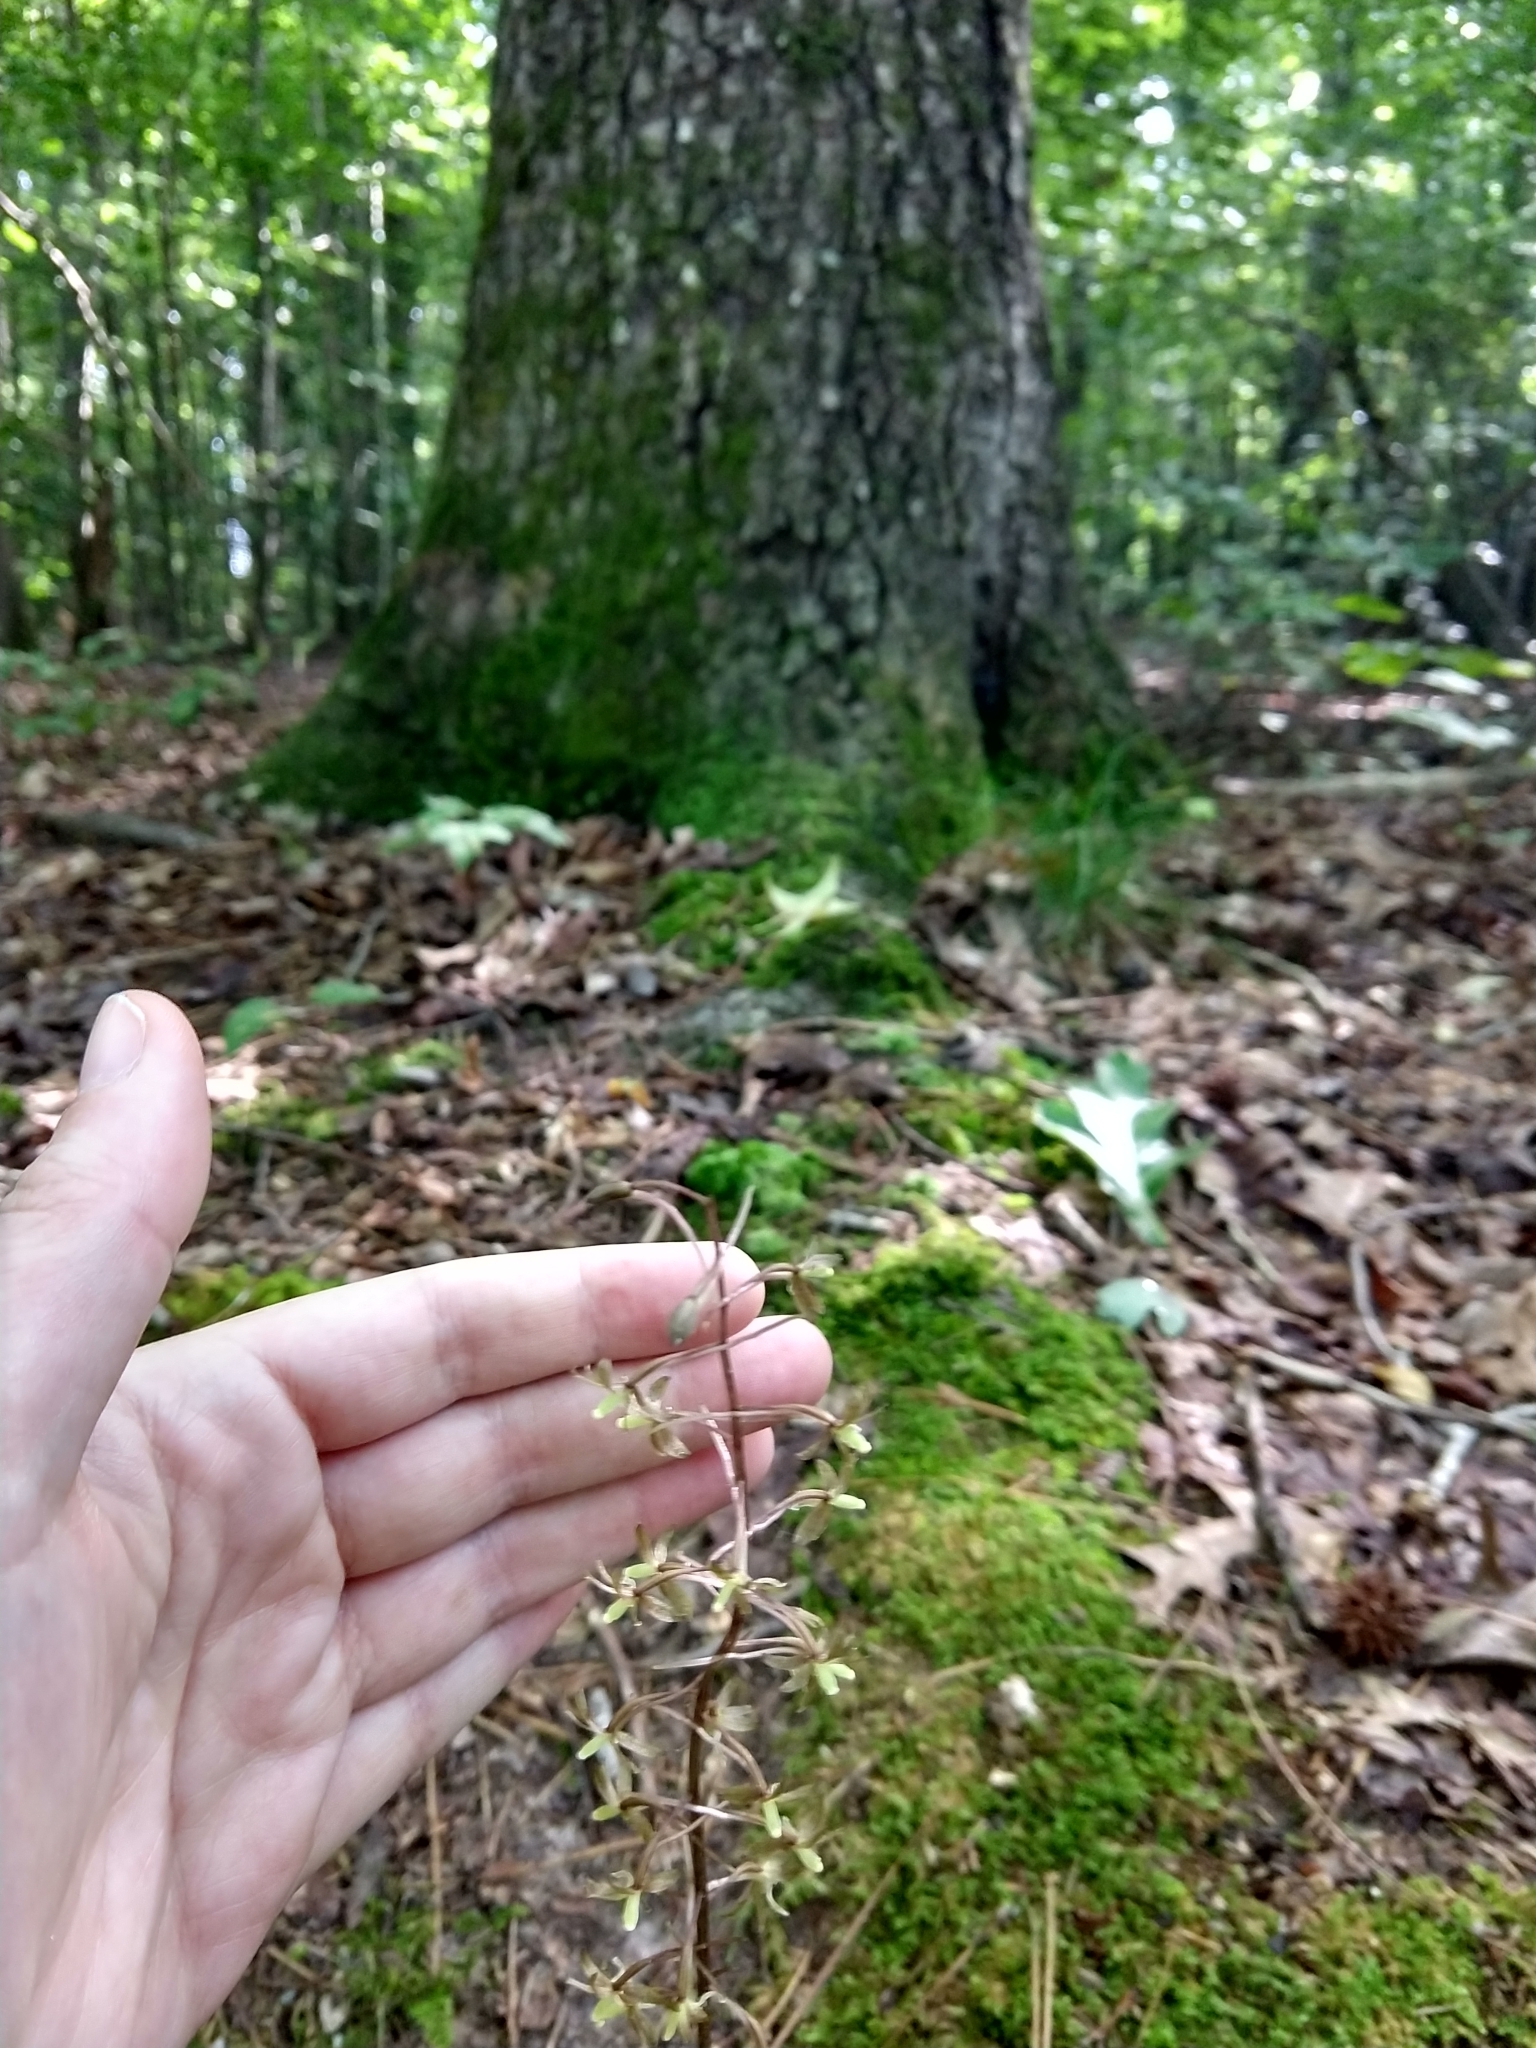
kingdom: Plantae
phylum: Tracheophyta
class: Liliopsida
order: Asparagales
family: Orchidaceae
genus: Tipularia
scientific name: Tipularia discolor
